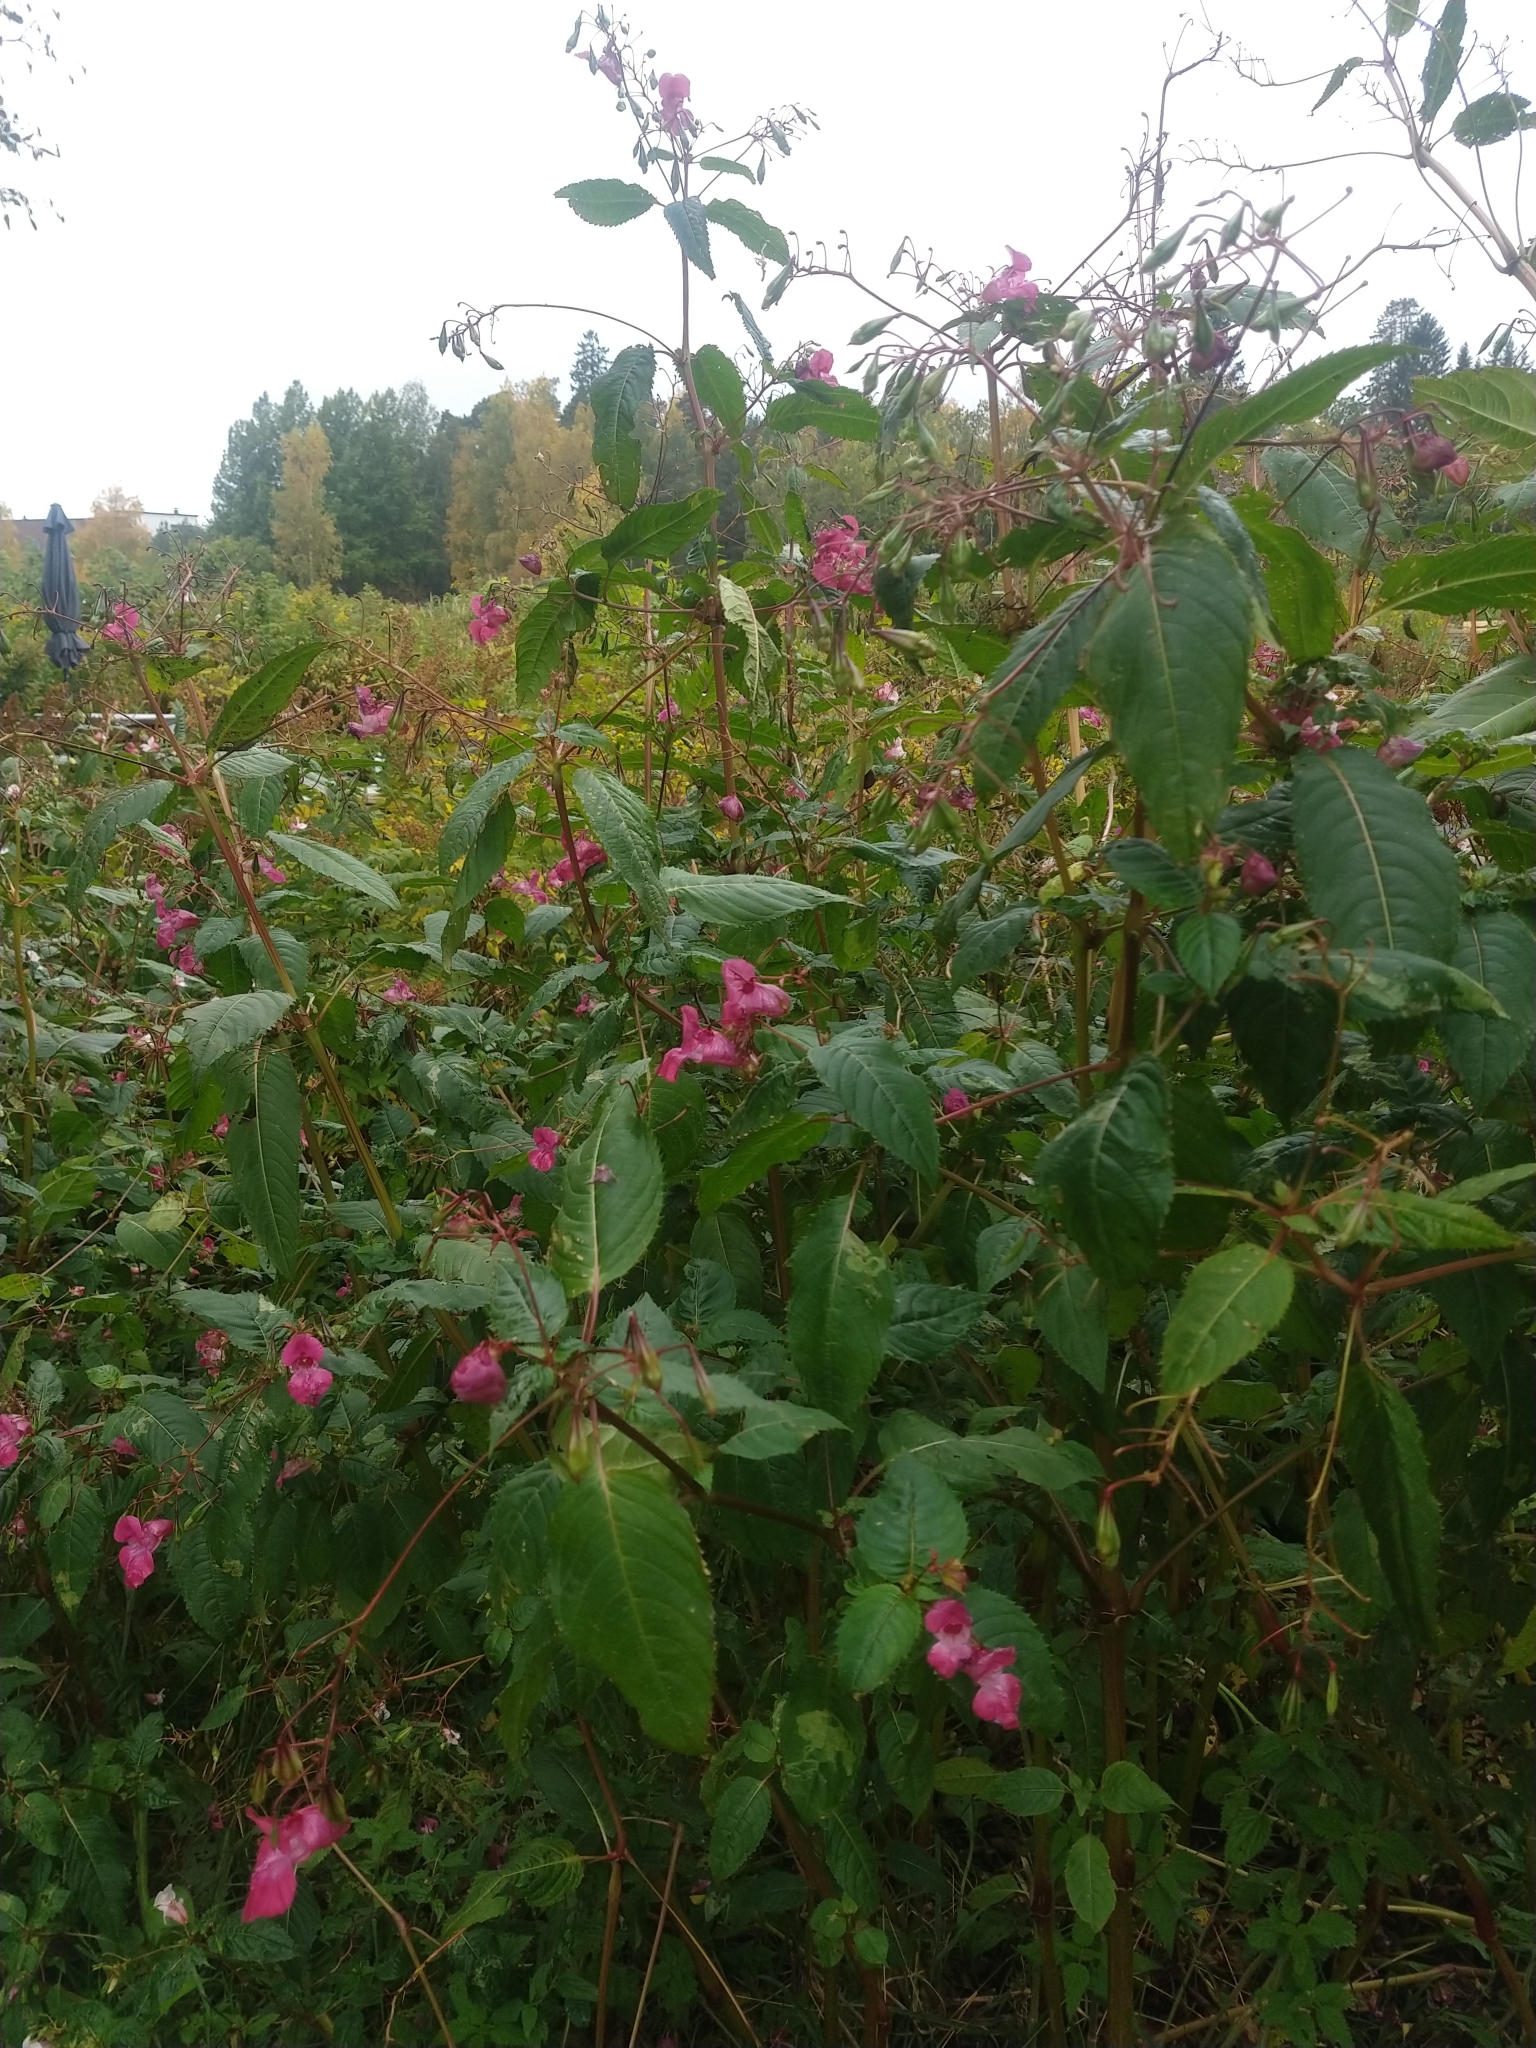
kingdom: Plantae
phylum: Tracheophyta
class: Magnoliopsida
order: Ericales
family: Balsaminaceae
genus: Impatiens
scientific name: Impatiens glandulifera
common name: Himalayan balsam
